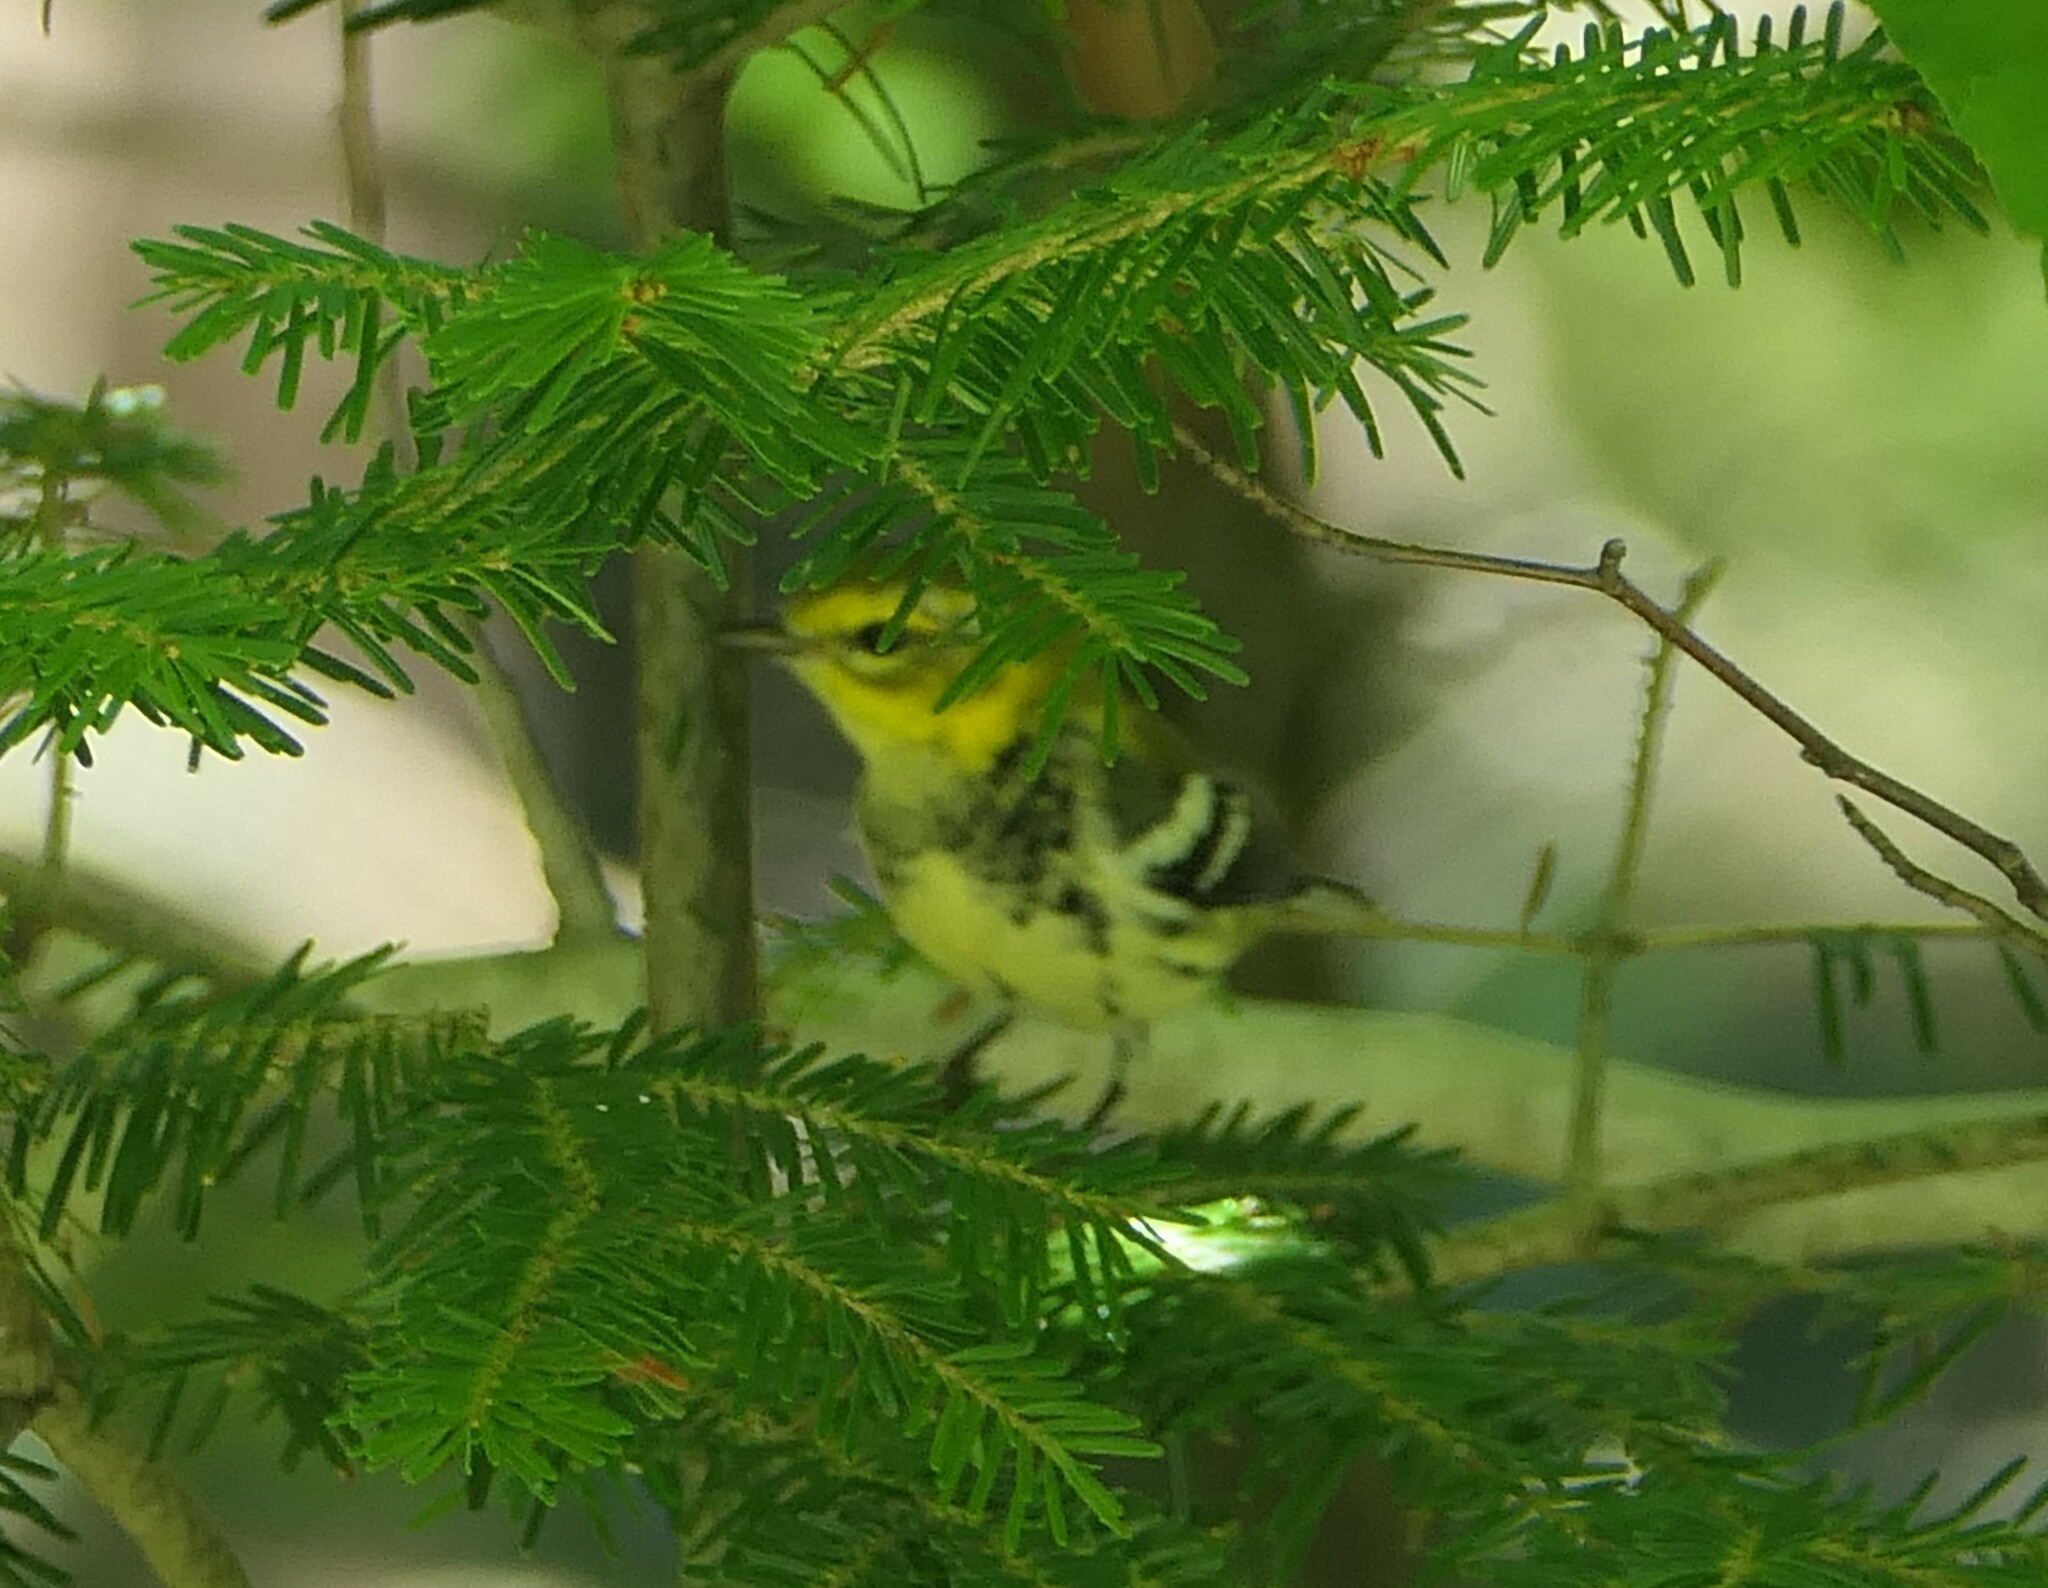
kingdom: Animalia
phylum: Chordata
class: Aves
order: Passeriformes
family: Parulidae
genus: Setophaga
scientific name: Setophaga virens
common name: Black-throated green warbler
